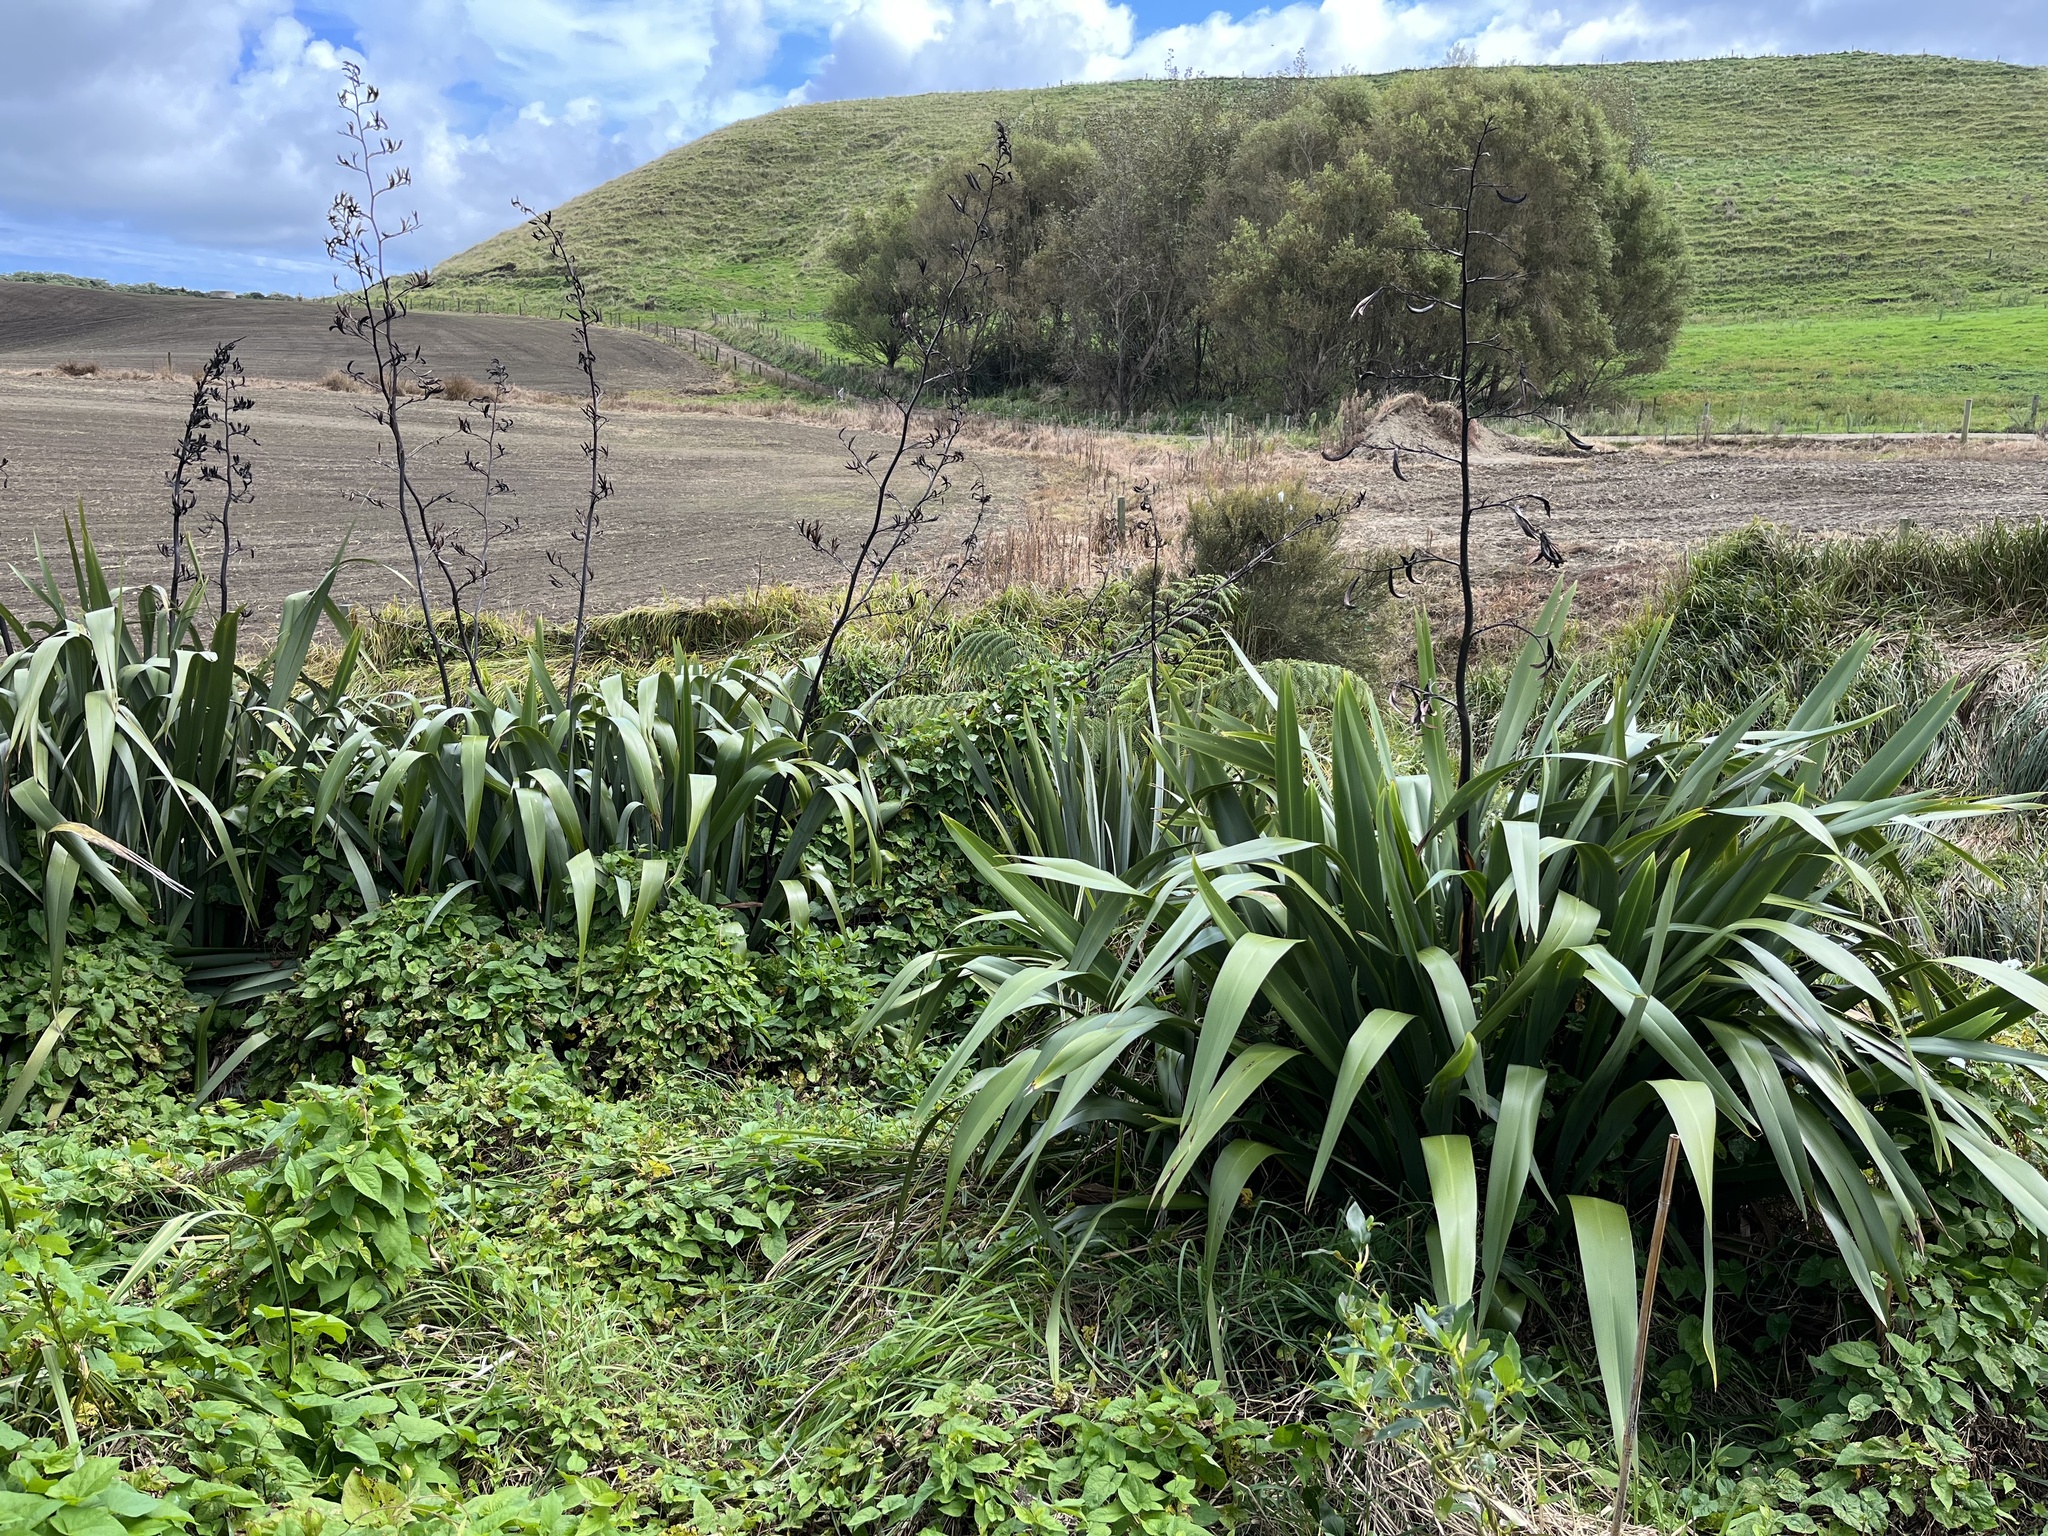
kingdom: Plantae
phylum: Tracheophyta
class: Liliopsida
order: Asparagales
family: Asphodelaceae
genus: Phormium
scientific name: Phormium tenax
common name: New zealand flax
